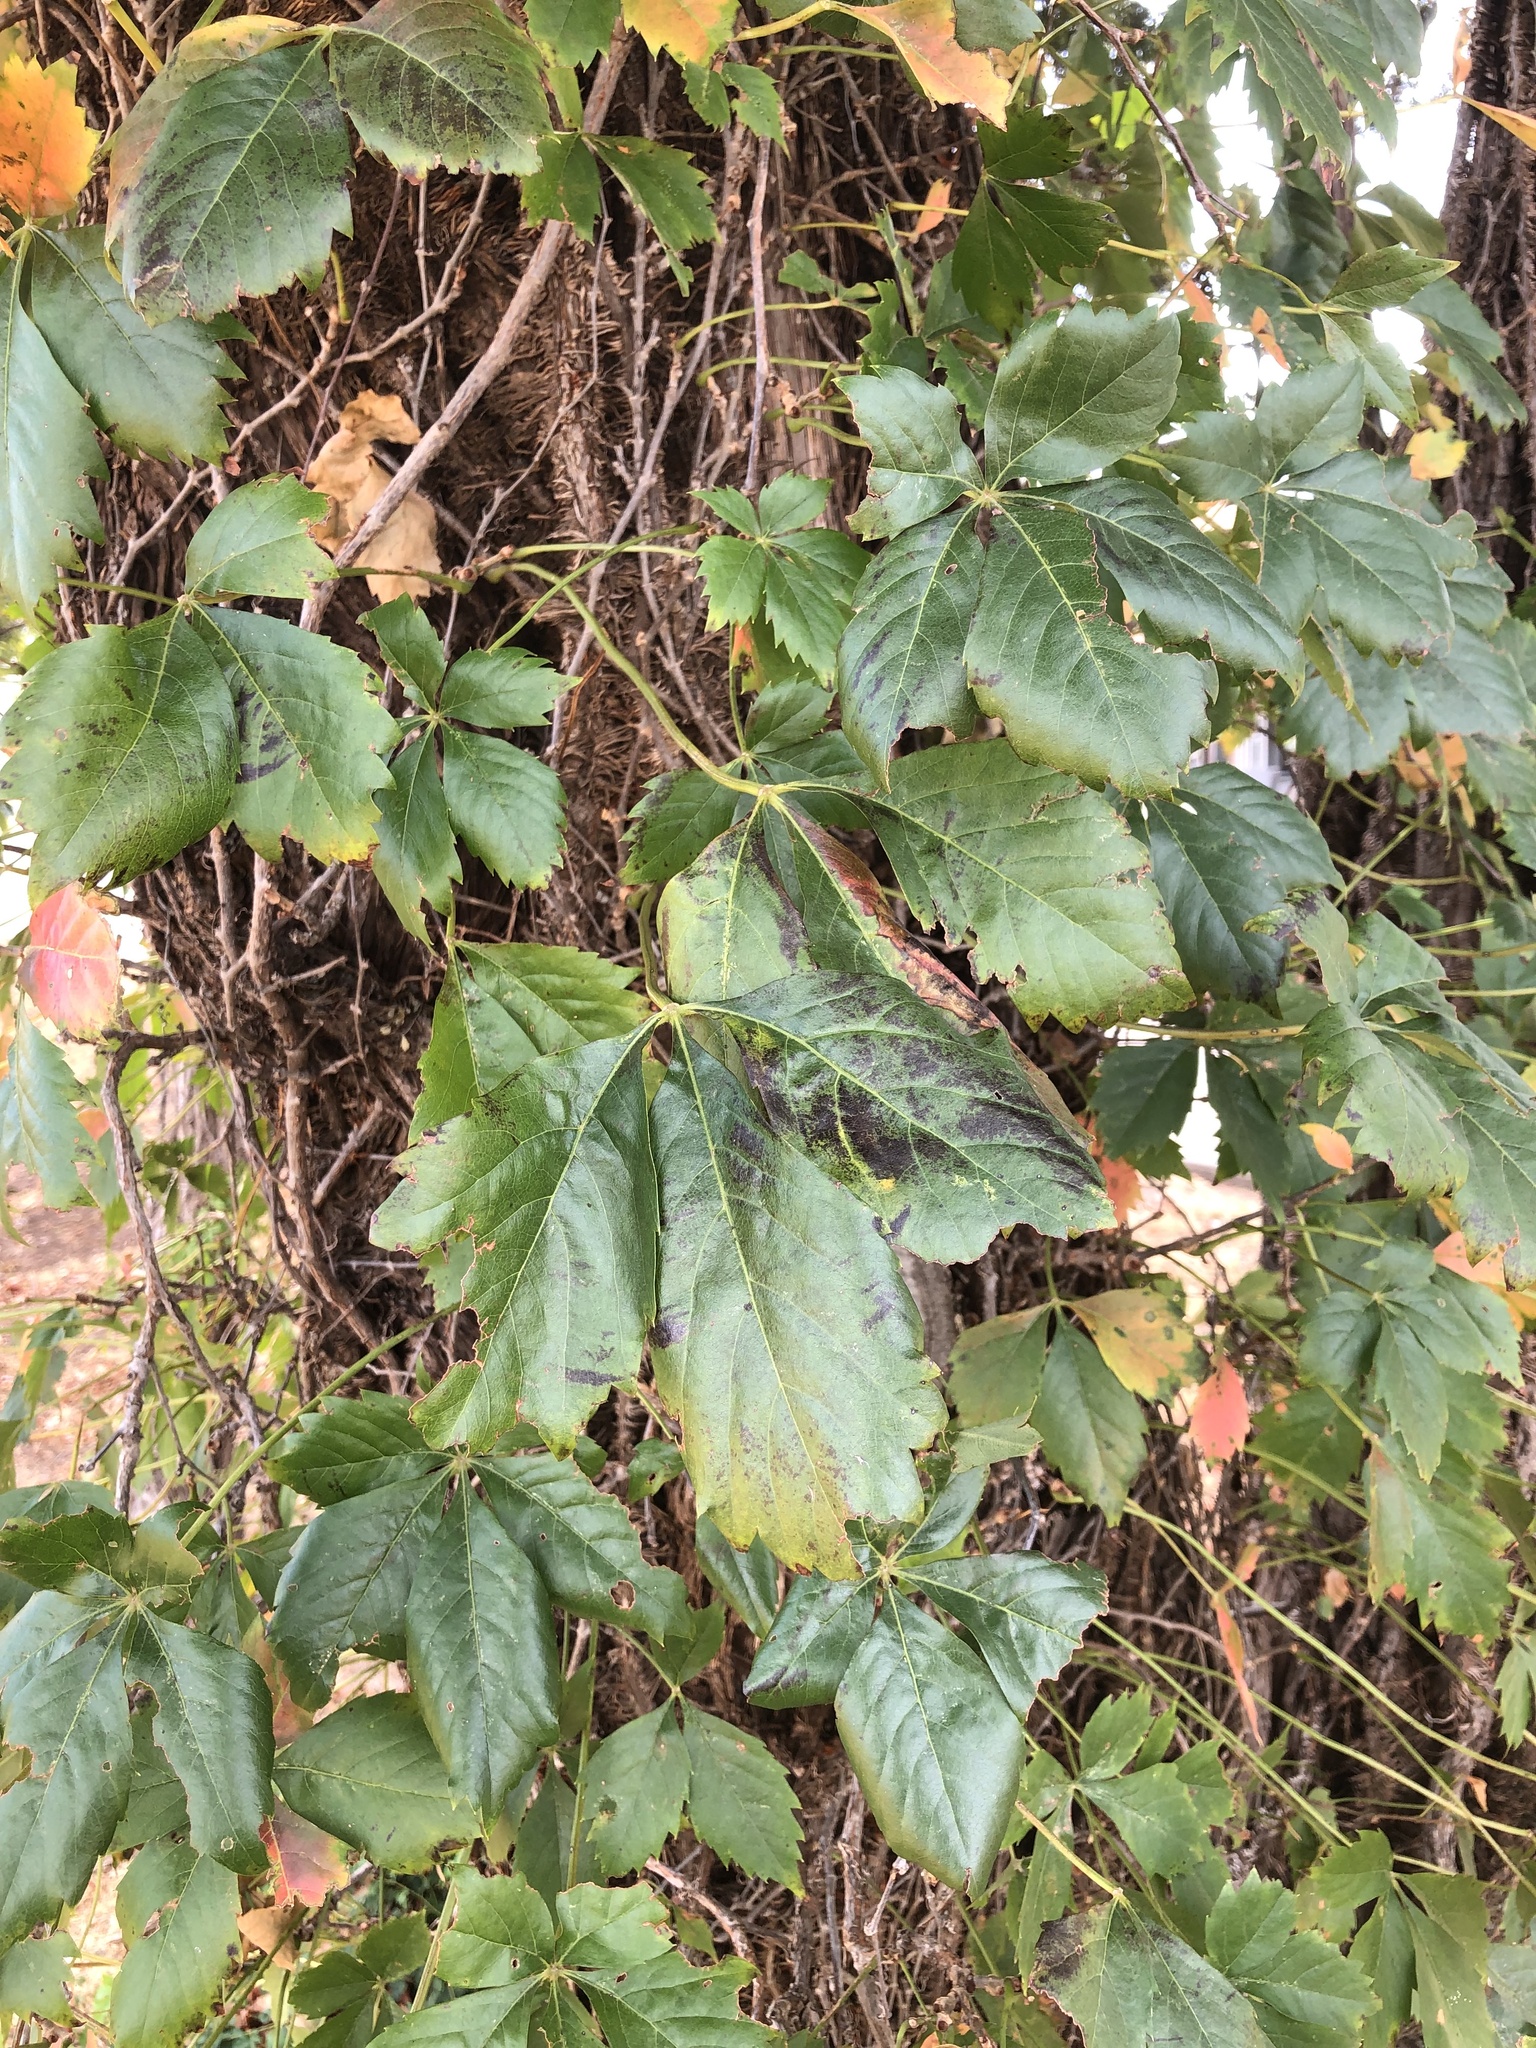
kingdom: Plantae
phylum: Tracheophyta
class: Magnoliopsida
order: Vitales
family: Vitaceae
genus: Parthenocissus
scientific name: Parthenocissus quinquefolia
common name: Virginia-creeper
